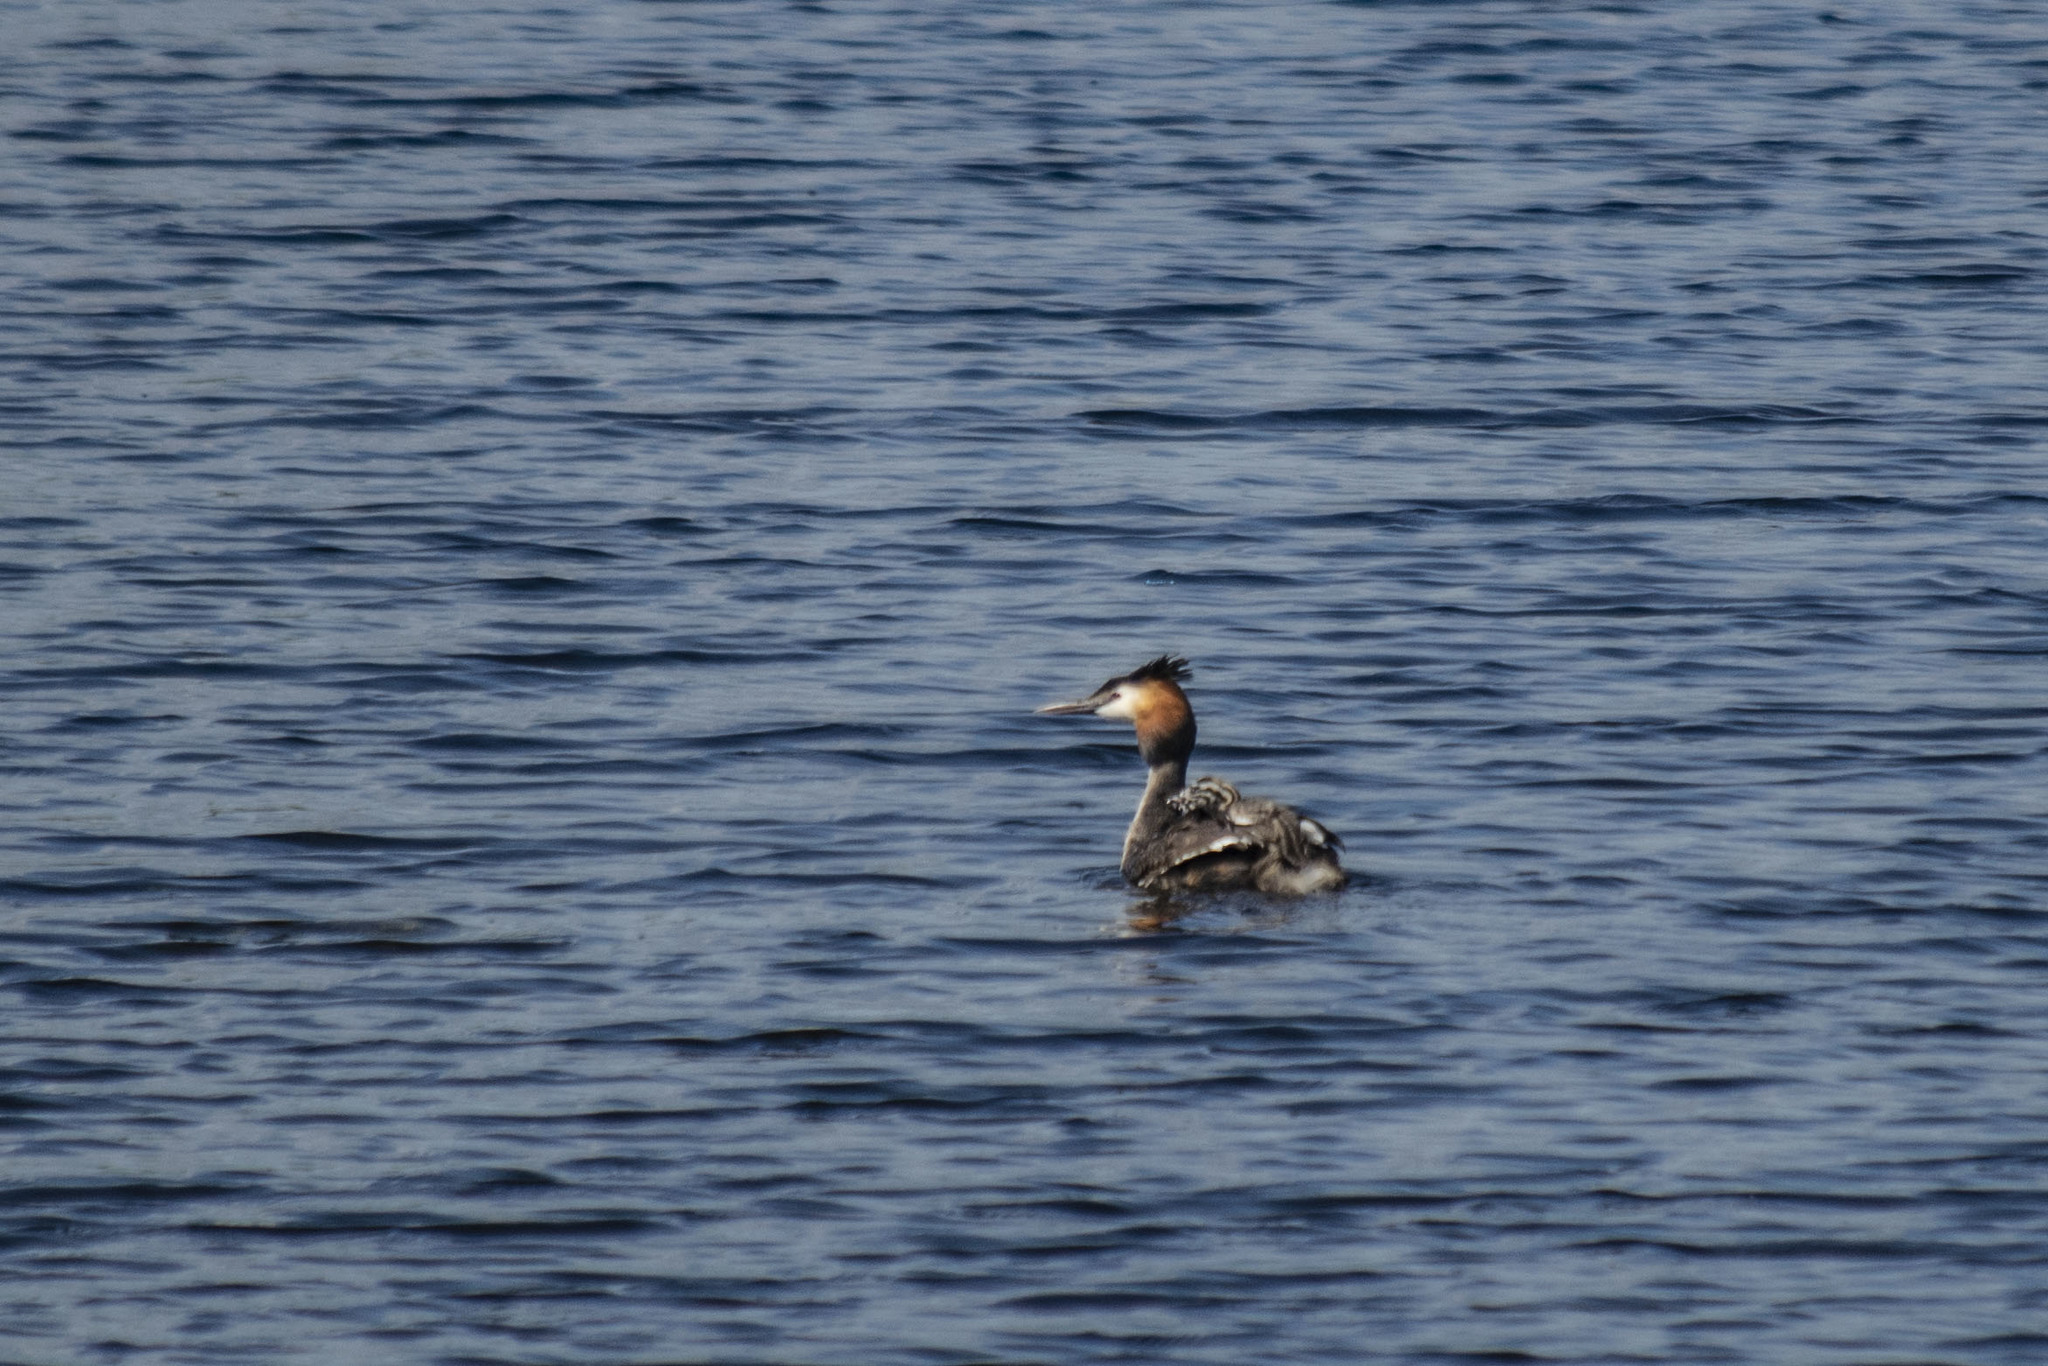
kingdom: Animalia
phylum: Chordata
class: Aves
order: Podicipediformes
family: Podicipedidae
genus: Podiceps
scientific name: Podiceps cristatus
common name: Great crested grebe
